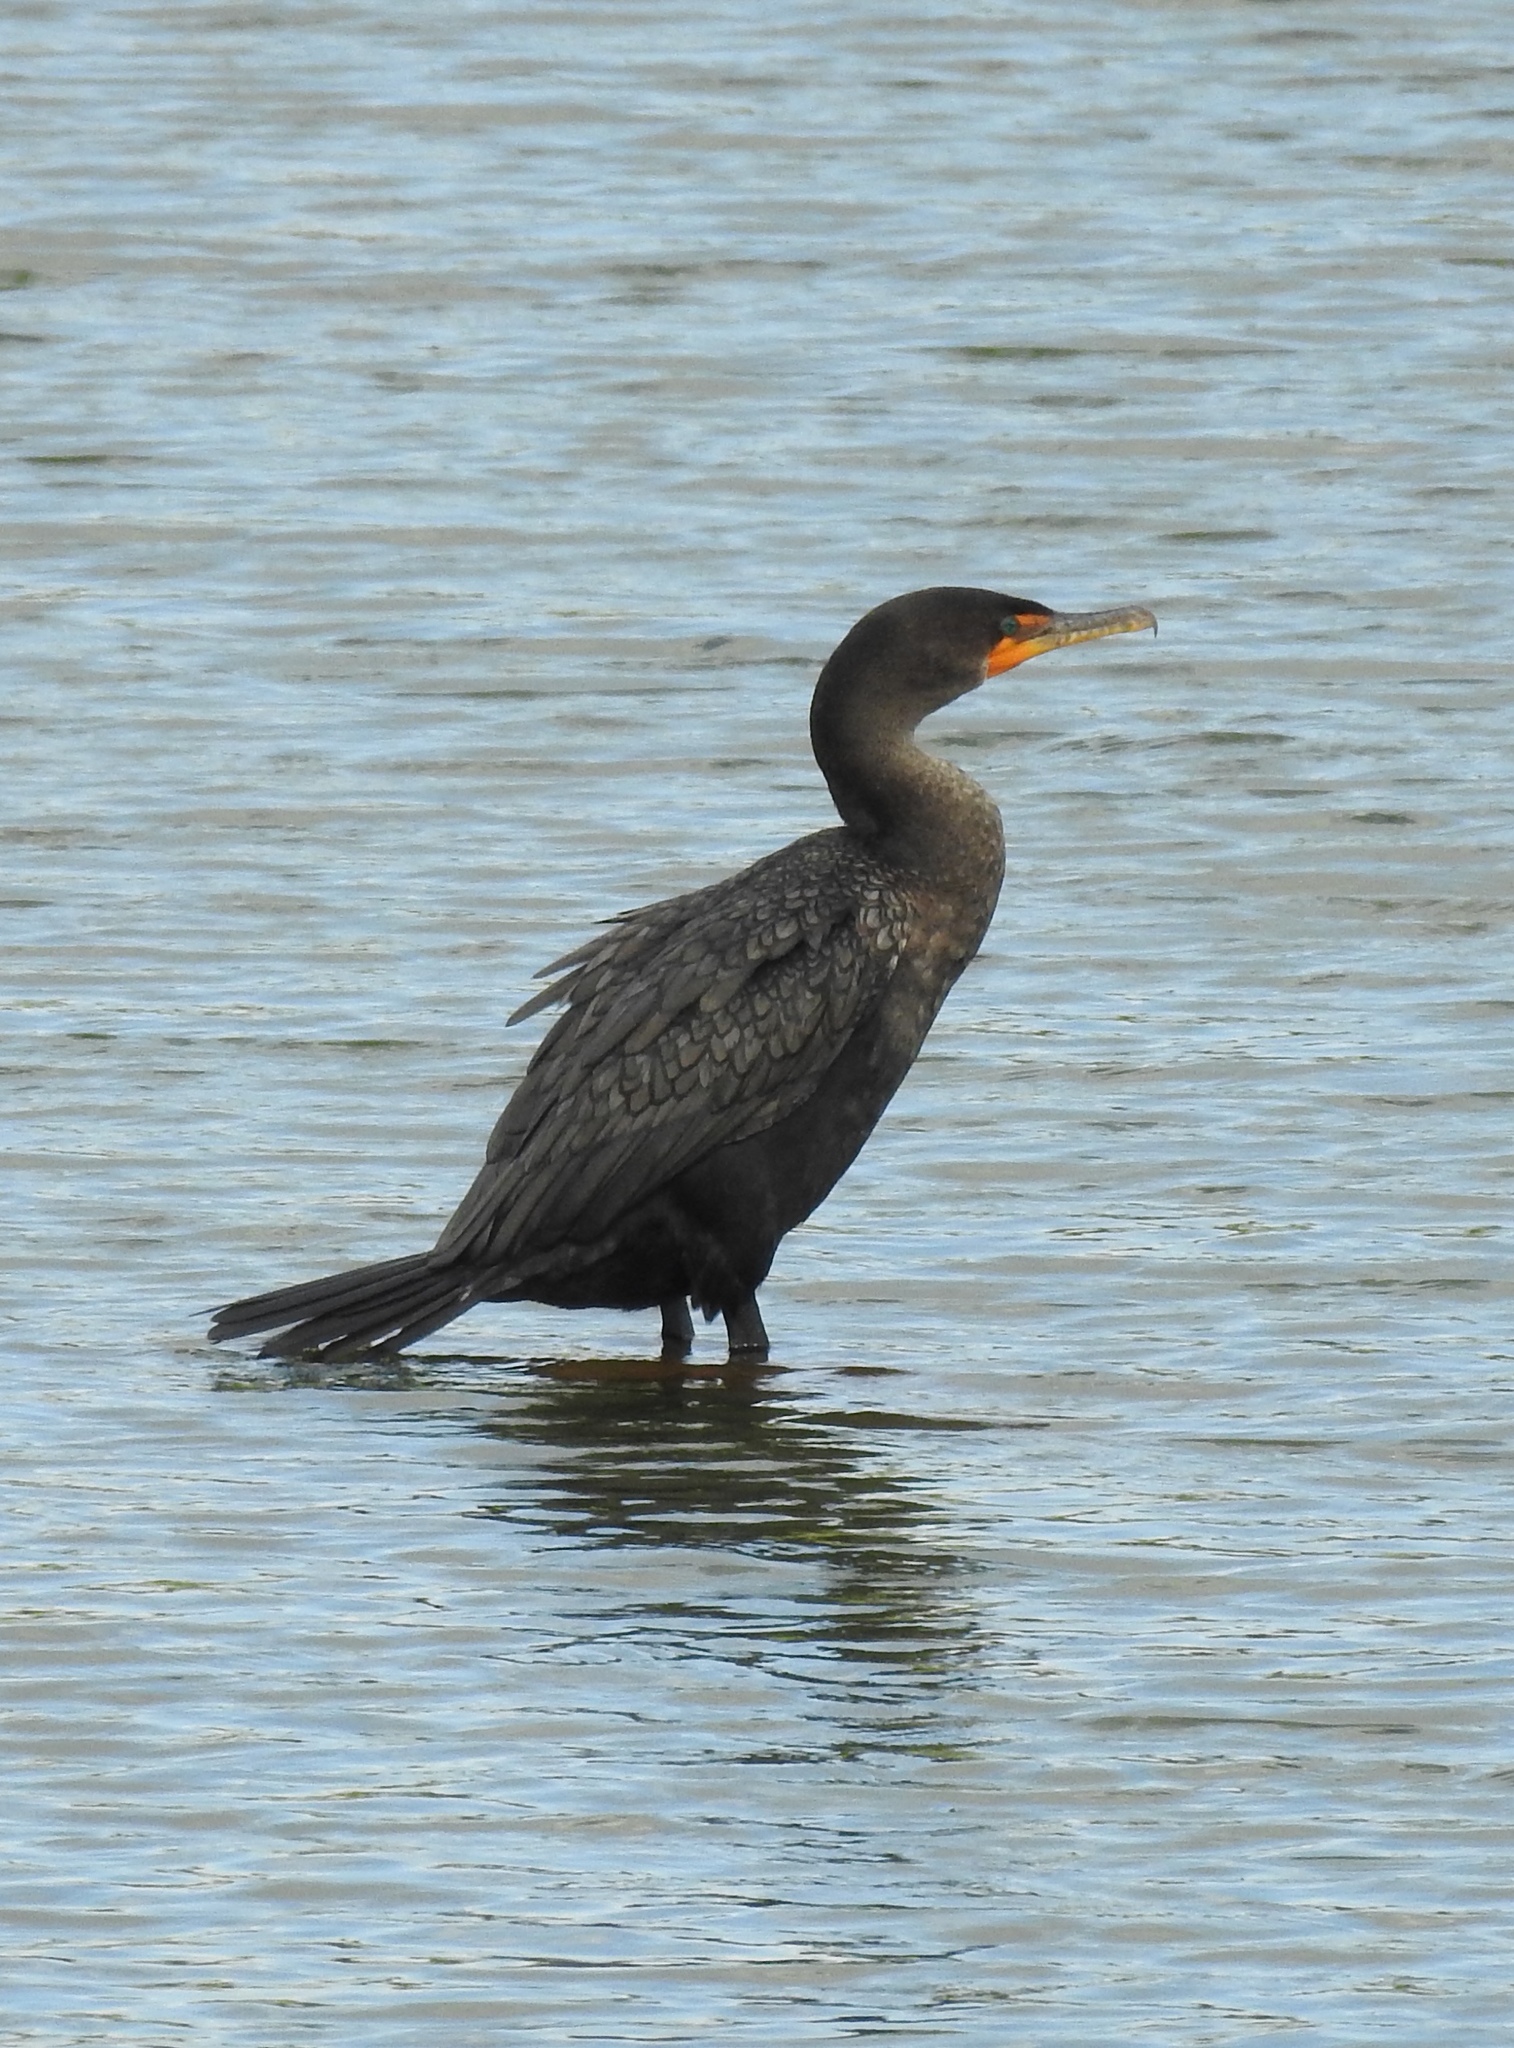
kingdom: Animalia
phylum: Chordata
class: Aves
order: Suliformes
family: Phalacrocoracidae
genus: Phalacrocorax
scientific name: Phalacrocorax auritus
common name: Double-crested cormorant
